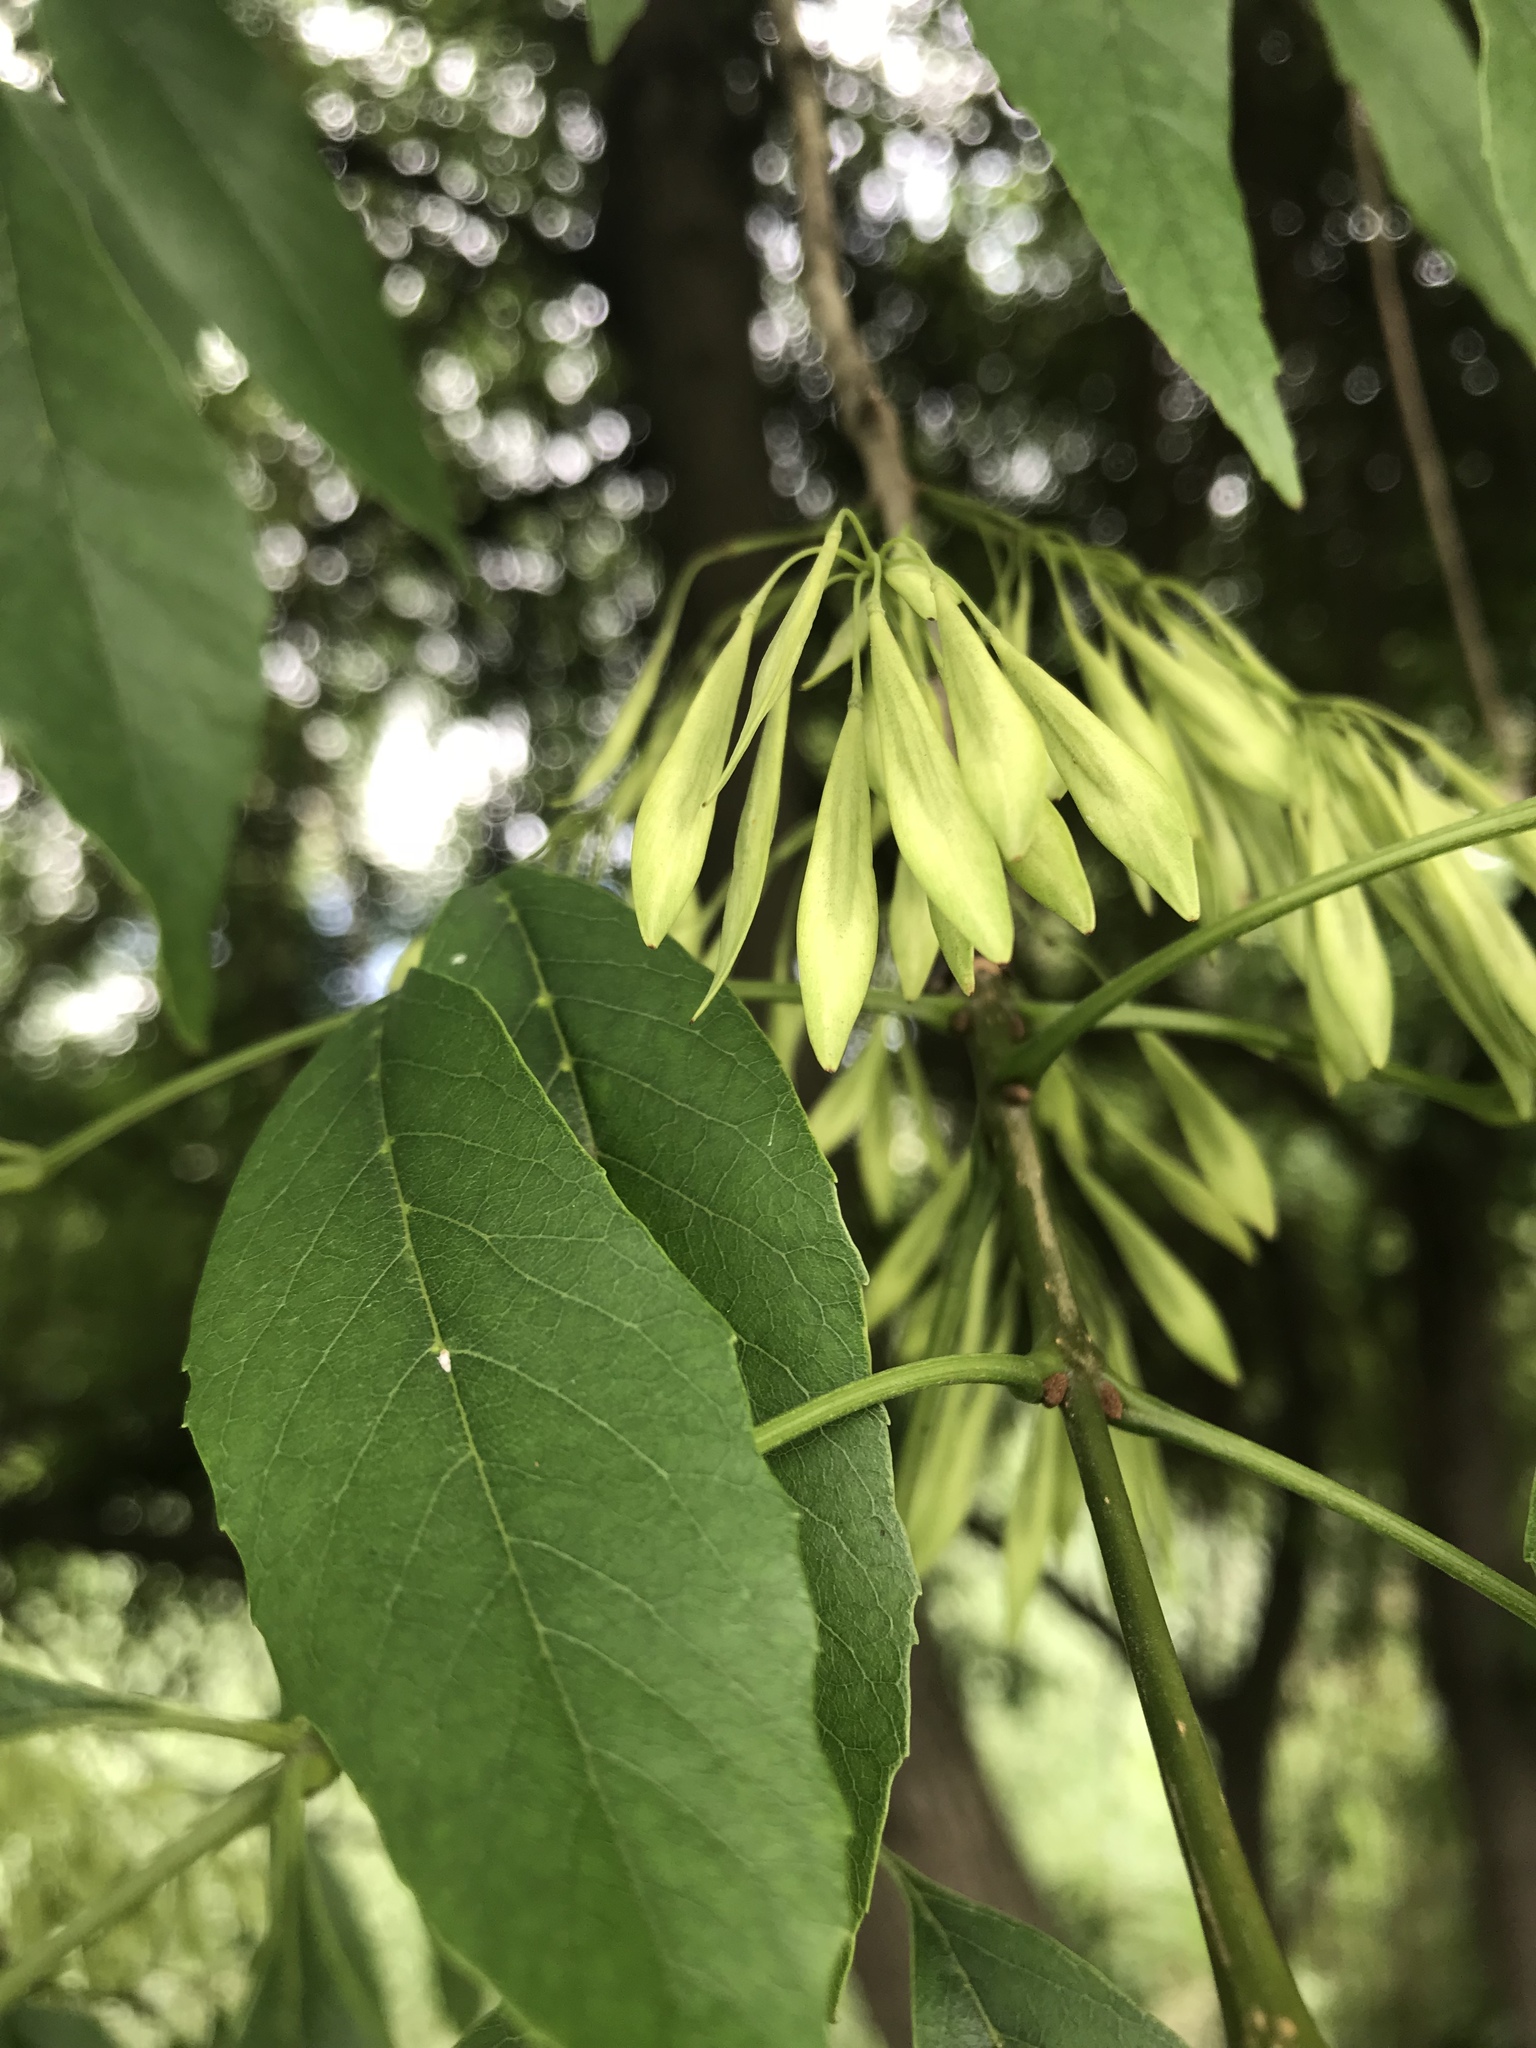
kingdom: Plantae
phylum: Tracheophyta
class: Magnoliopsida
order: Lamiales
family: Oleaceae
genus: Fraxinus
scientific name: Fraxinus berlandieriana
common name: Berlandier ash
